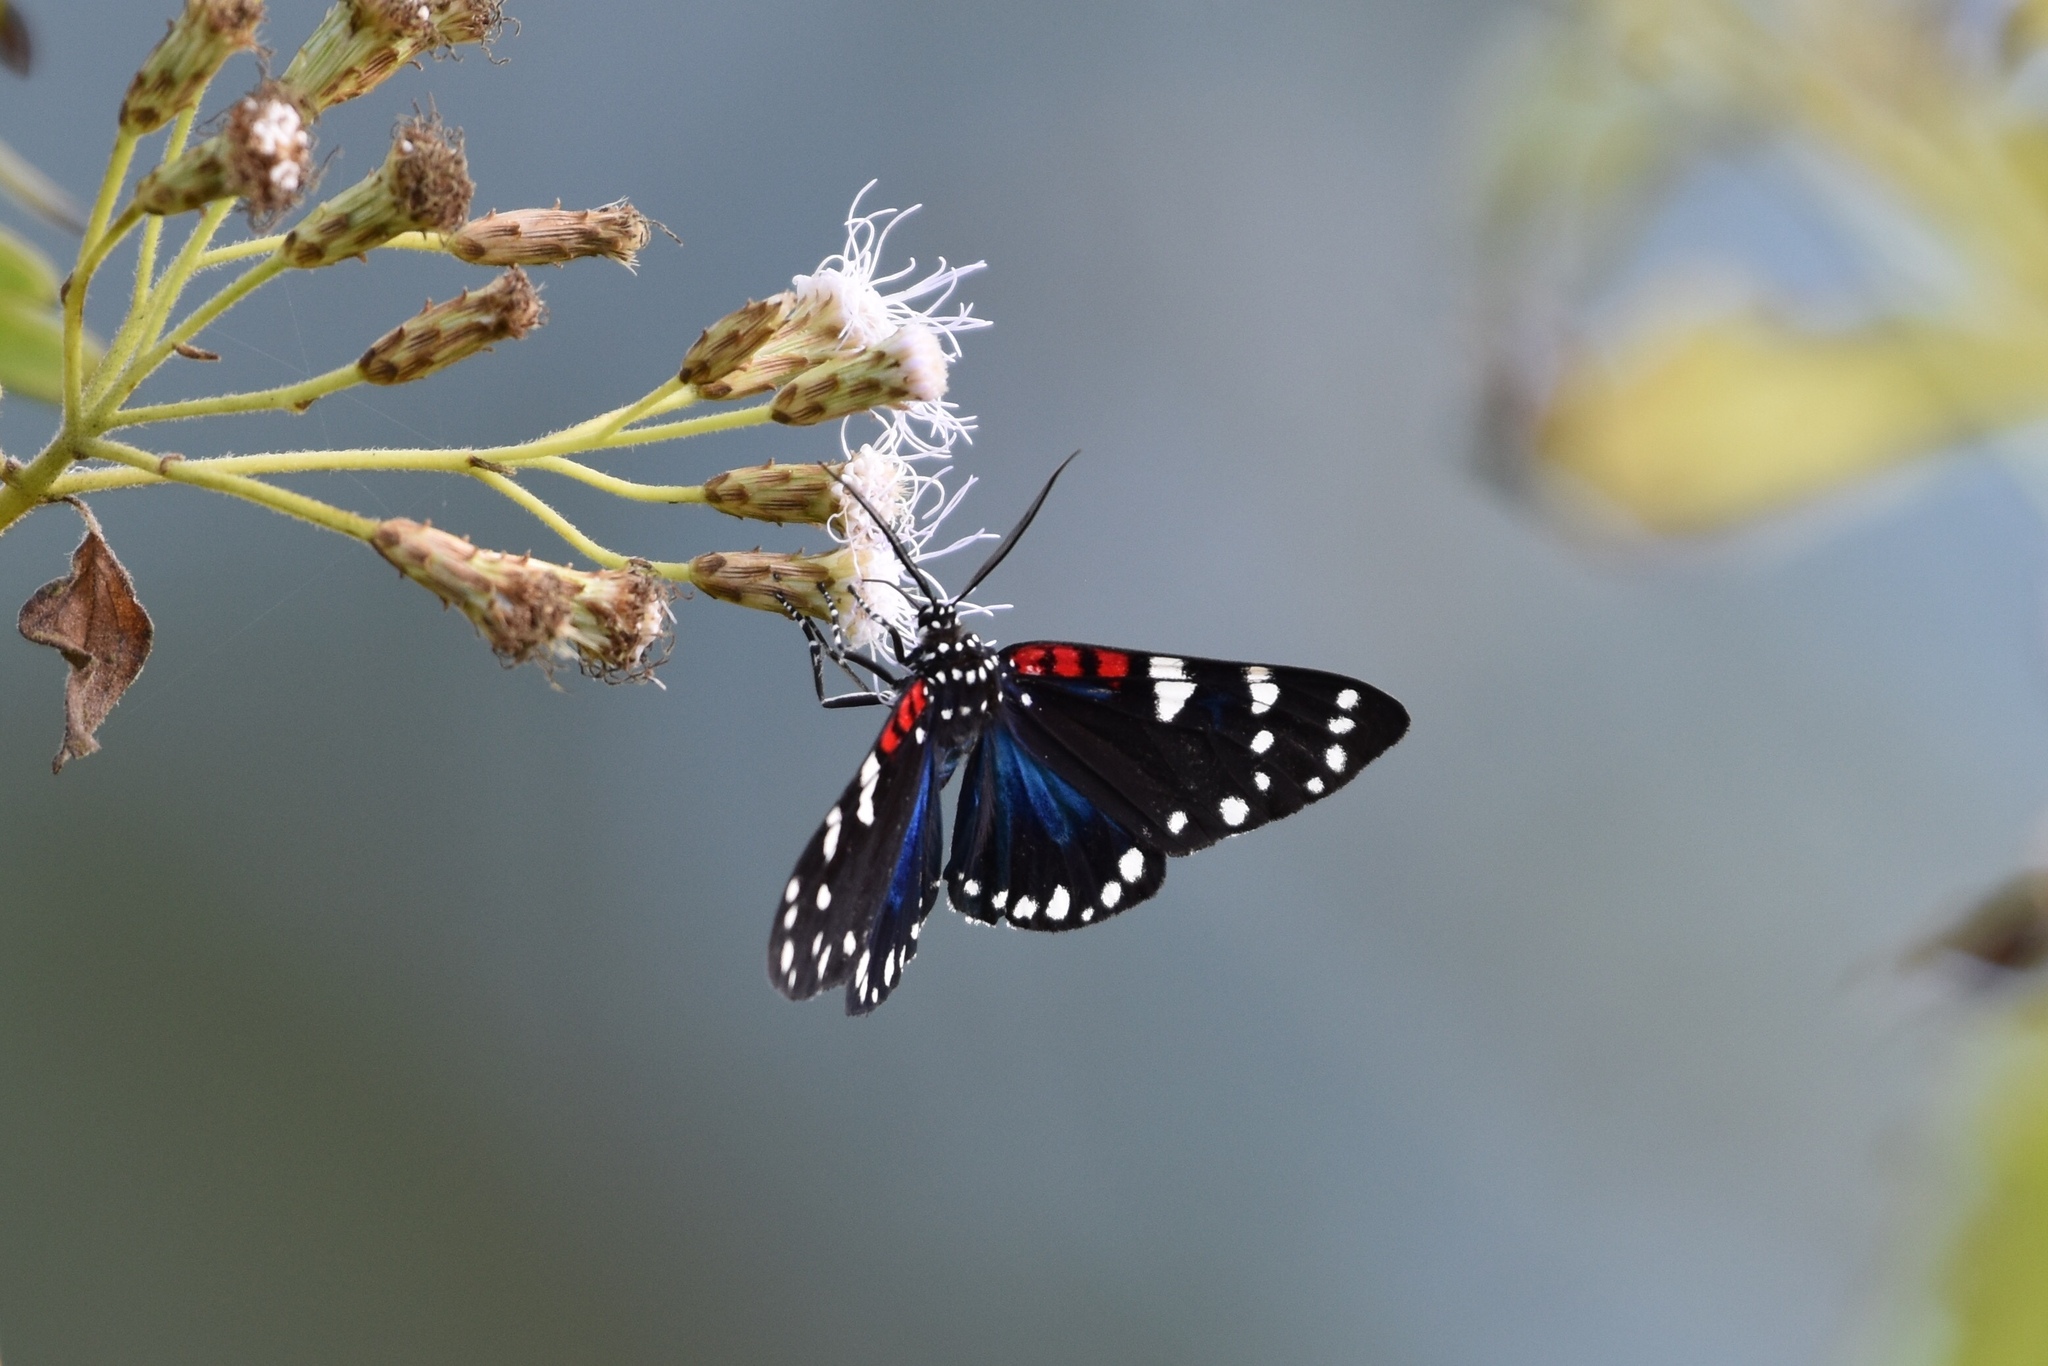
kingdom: Animalia
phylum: Arthropoda
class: Insecta
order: Lepidoptera
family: Erebidae
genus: Composia
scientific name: Composia fidelissima
